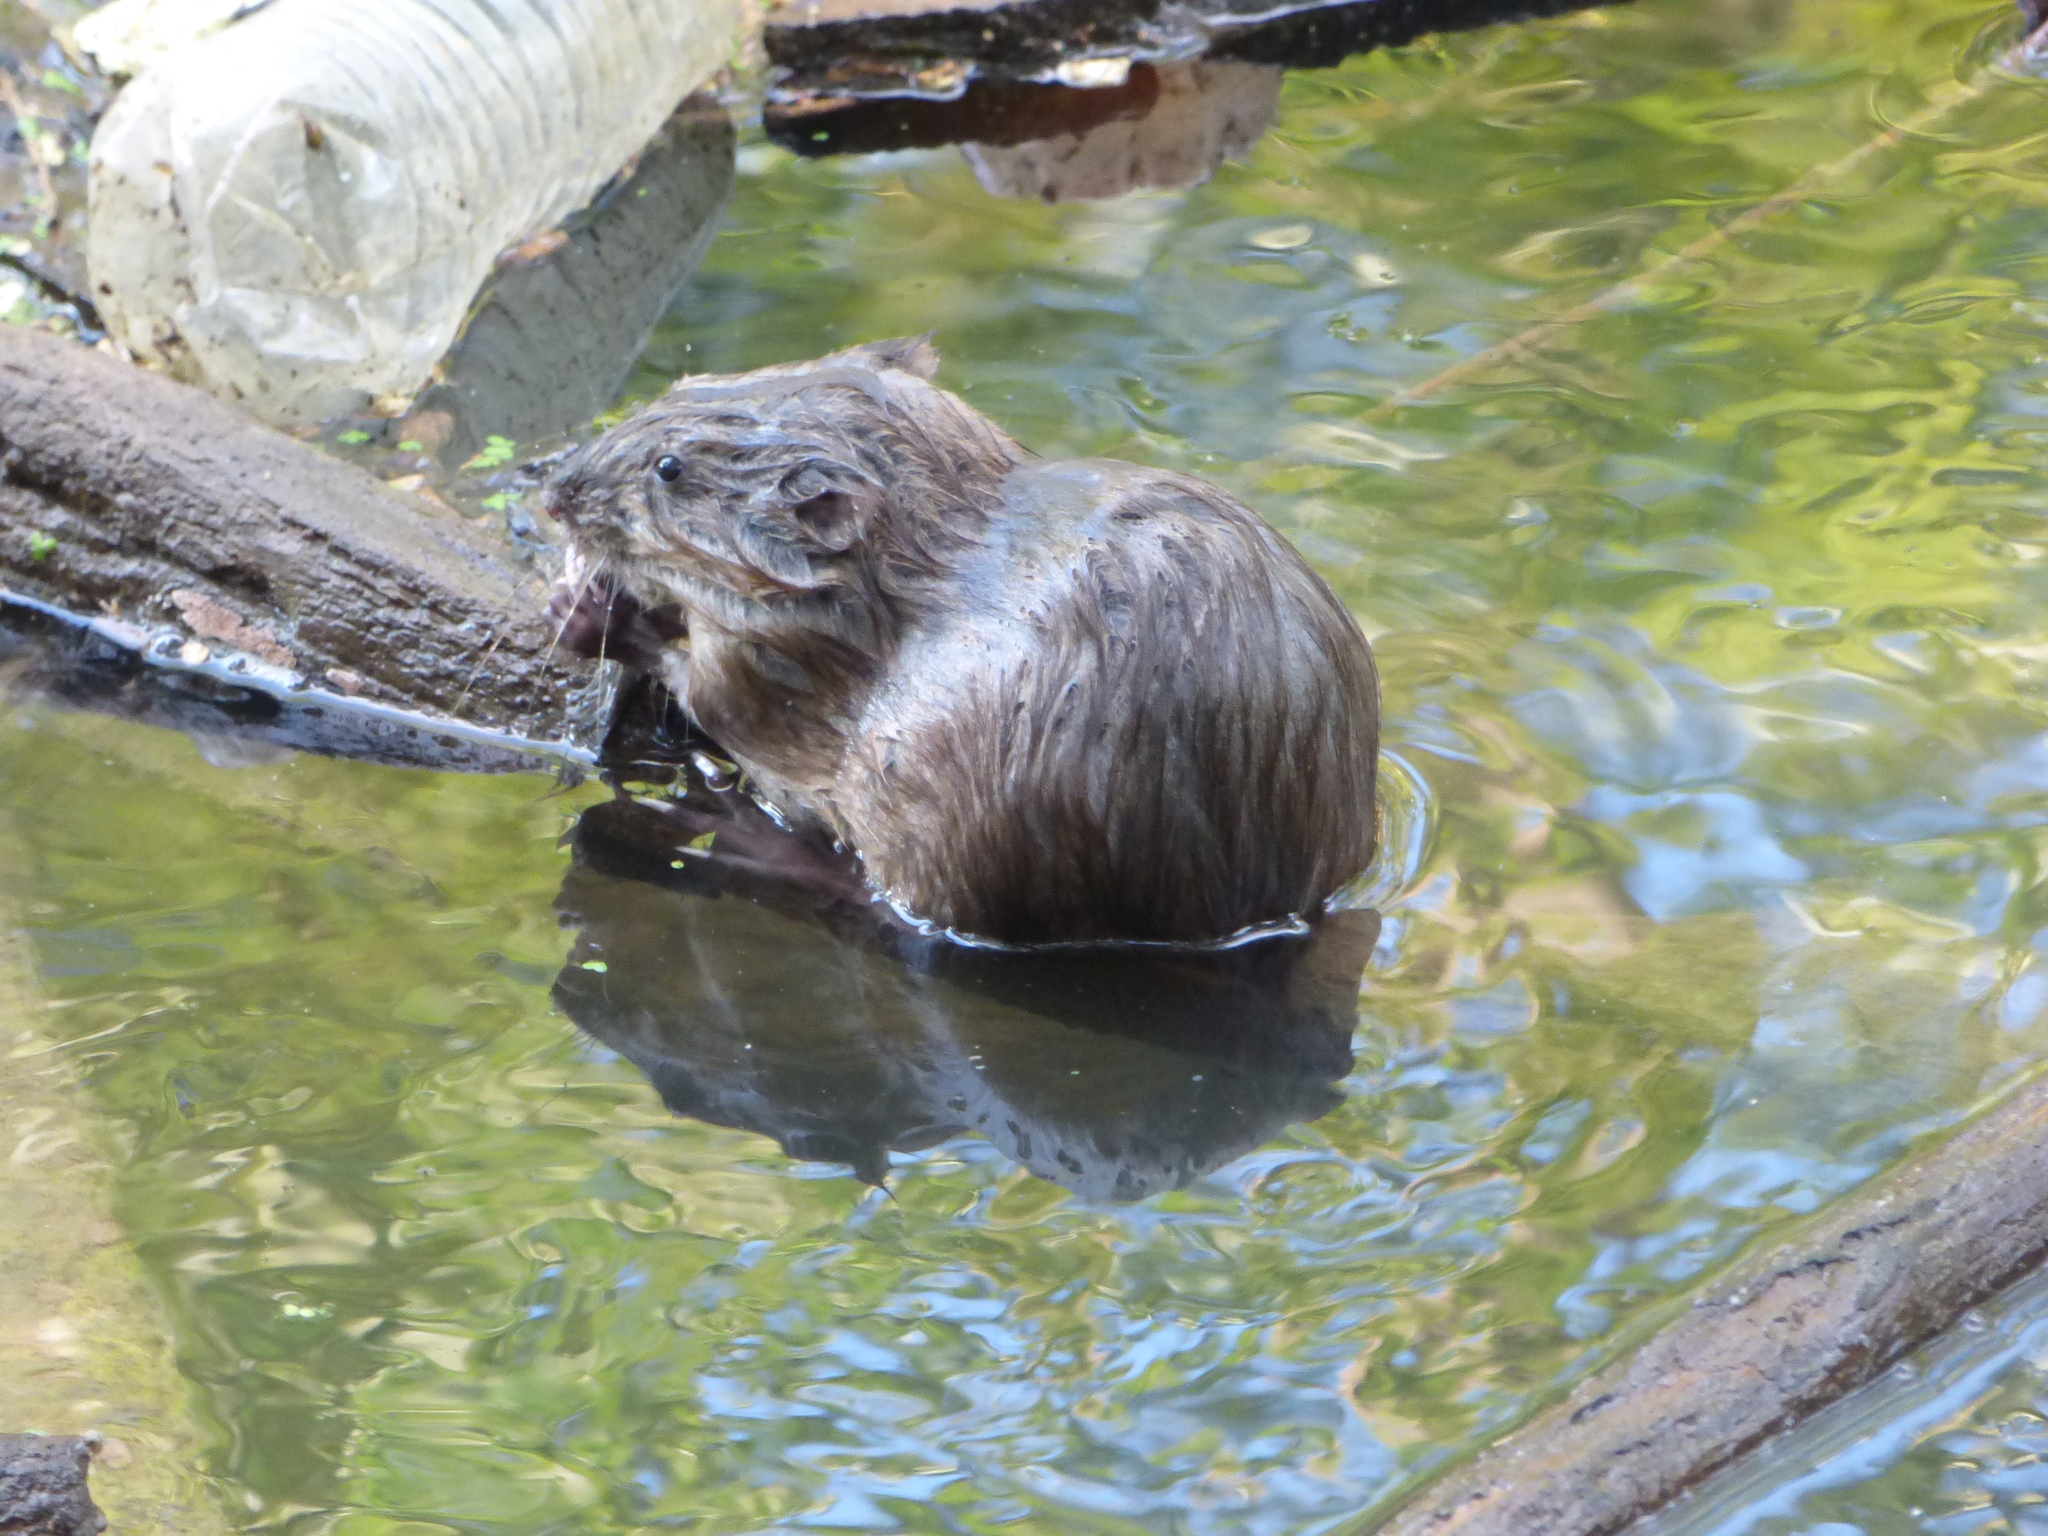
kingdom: Animalia
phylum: Chordata
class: Mammalia
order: Rodentia
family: Cricetidae
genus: Ondatra
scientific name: Ondatra zibethicus
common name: Muskrat
